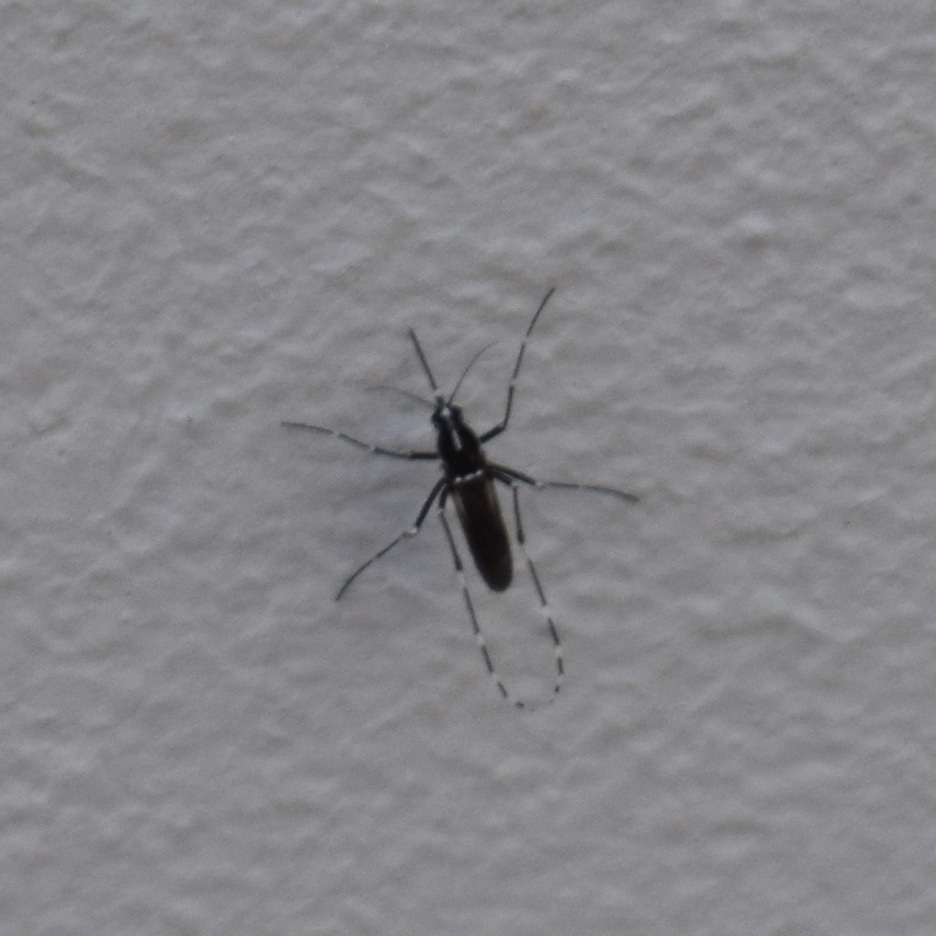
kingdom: Animalia
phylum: Arthropoda
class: Insecta
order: Diptera
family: Culicidae
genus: Aedes
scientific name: Aedes albopictus
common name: Tiger mosquito
